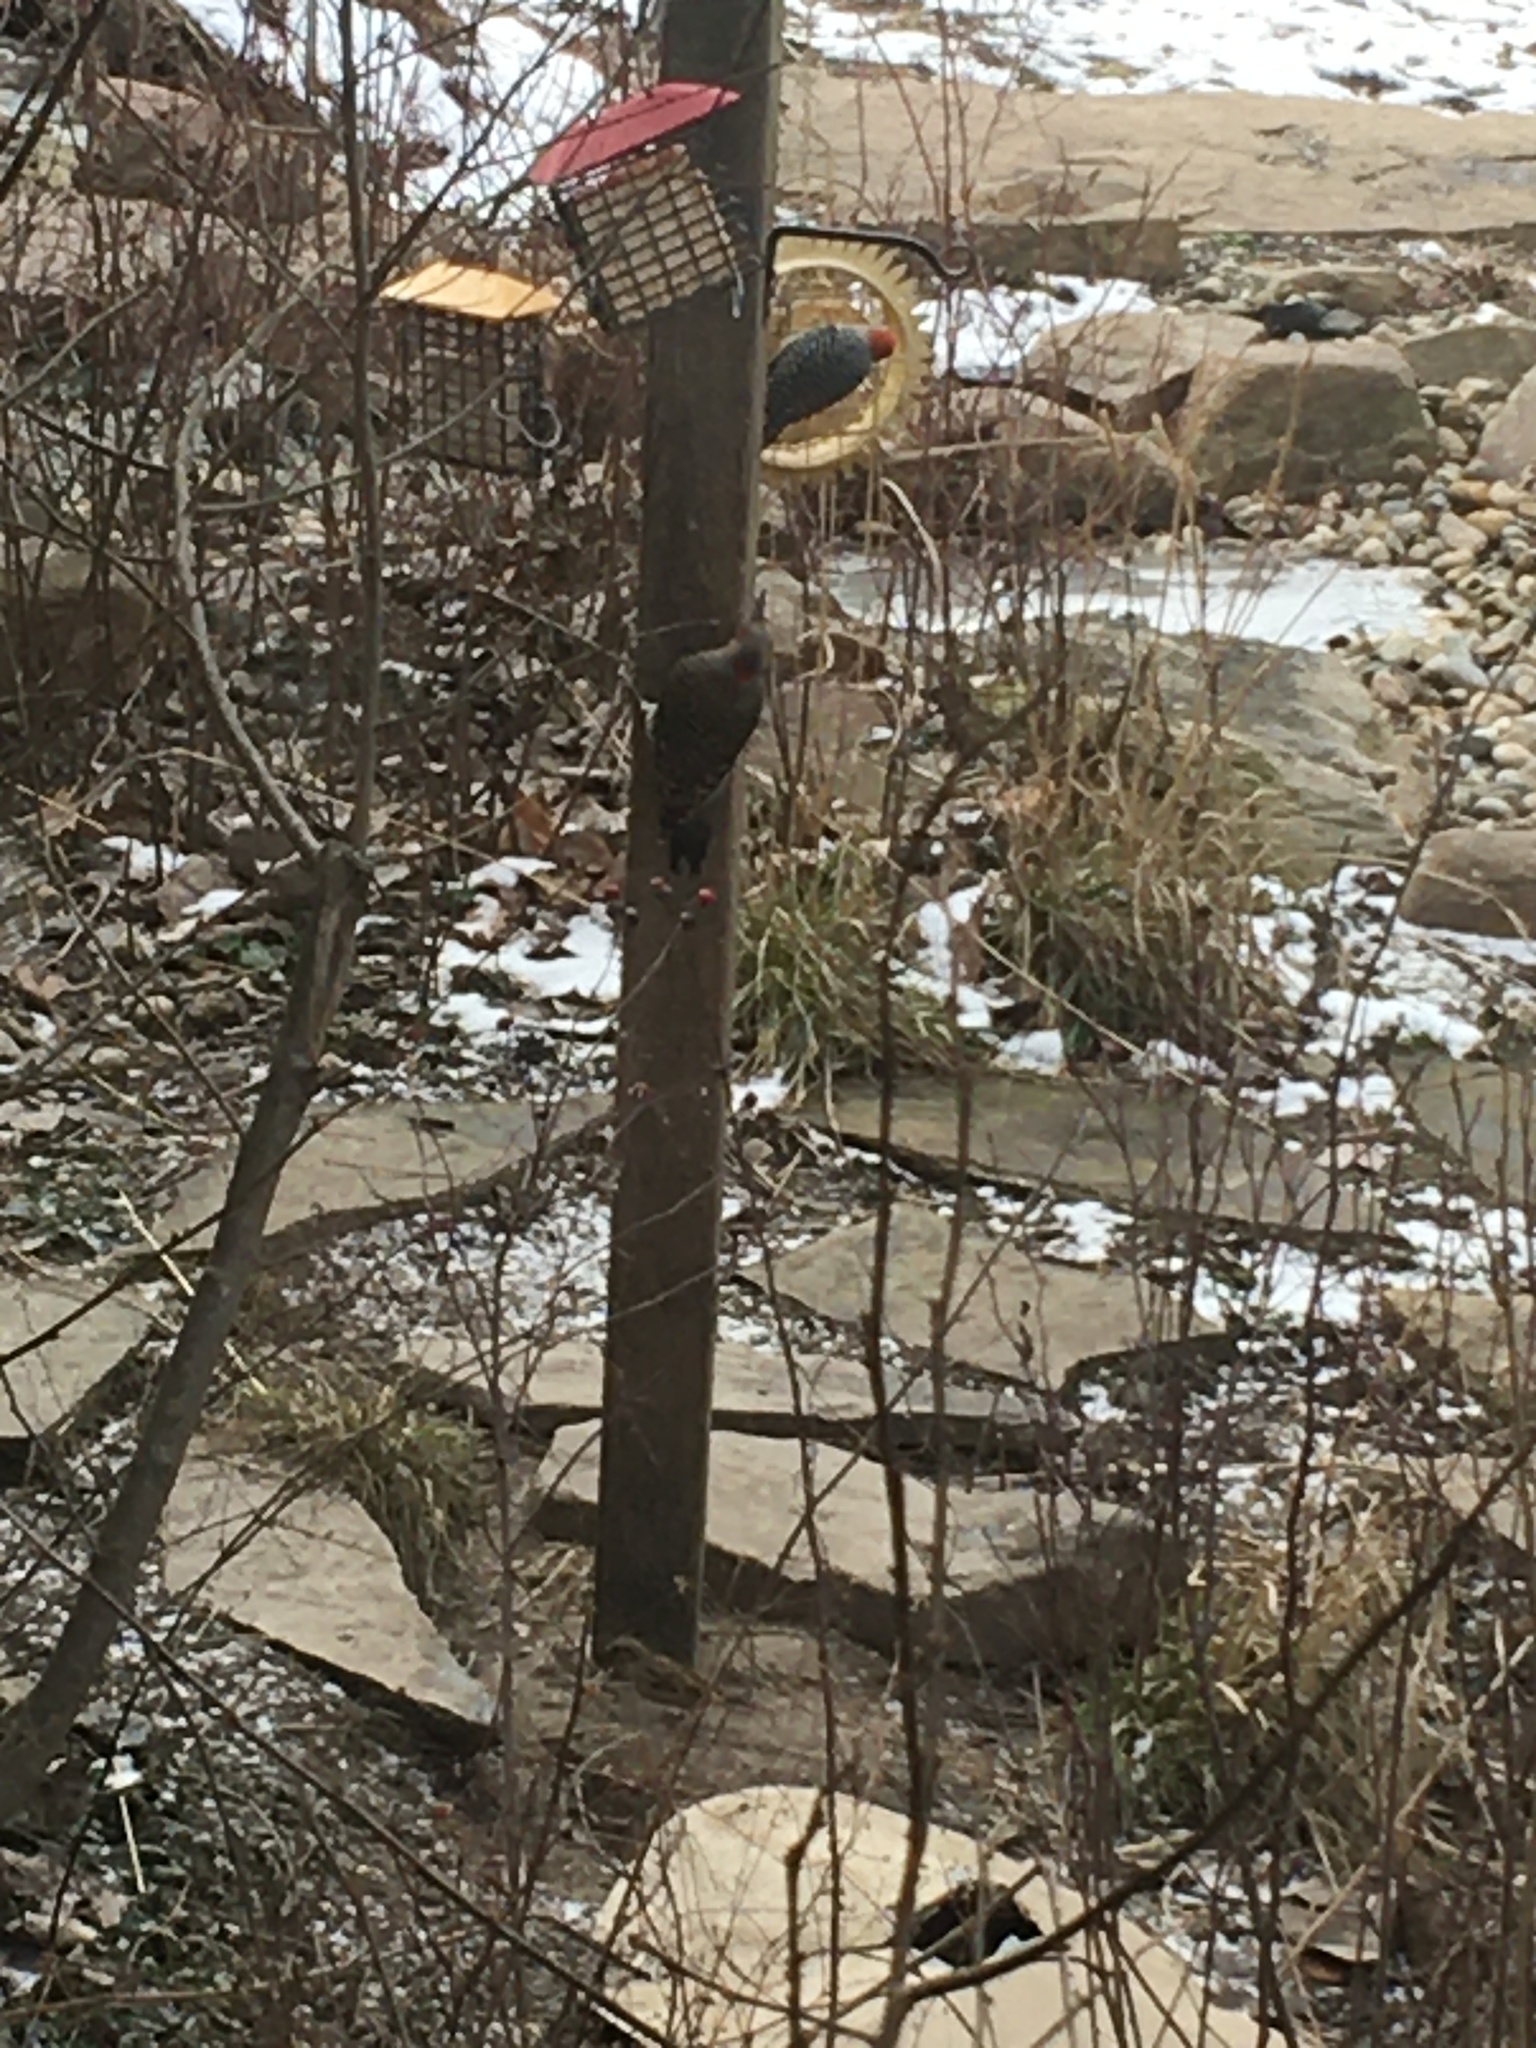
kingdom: Animalia
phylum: Chordata
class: Aves
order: Piciformes
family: Picidae
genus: Colaptes
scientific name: Colaptes auratus
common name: Northern flicker
